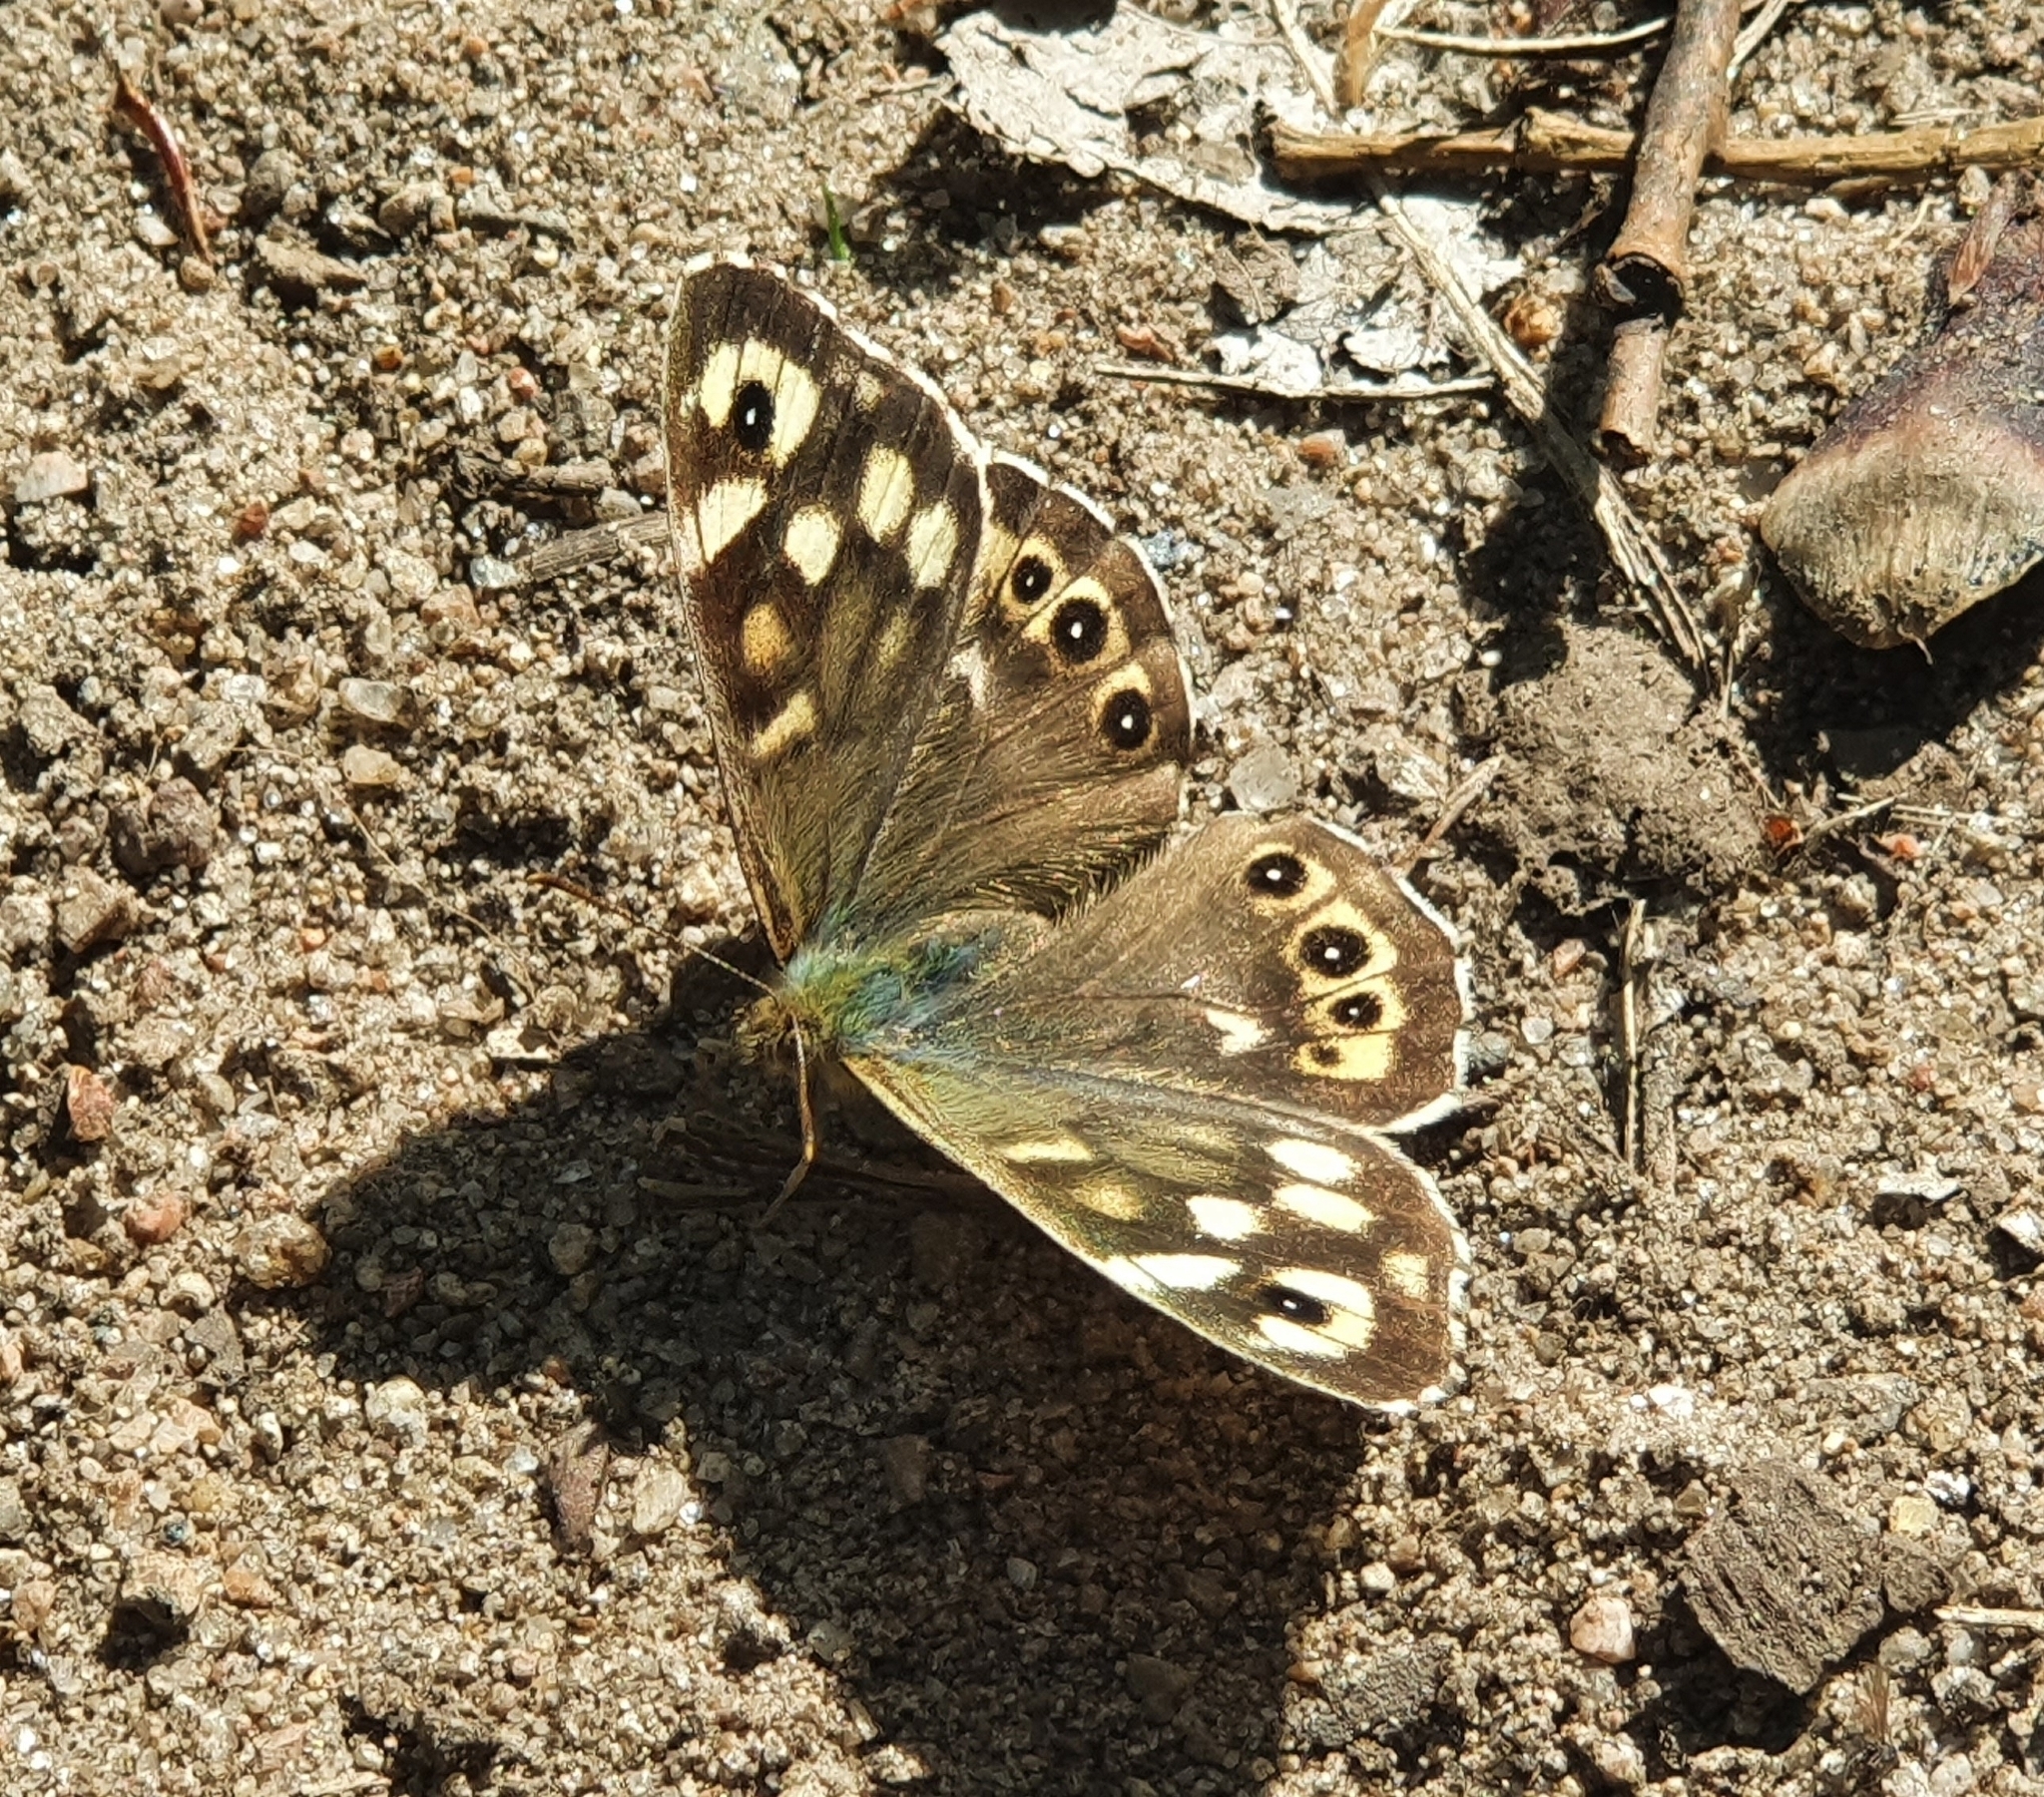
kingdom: Animalia
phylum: Arthropoda
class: Insecta
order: Lepidoptera
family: Nymphalidae
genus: Pararge
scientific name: Pararge aegeria
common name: Speckled wood
